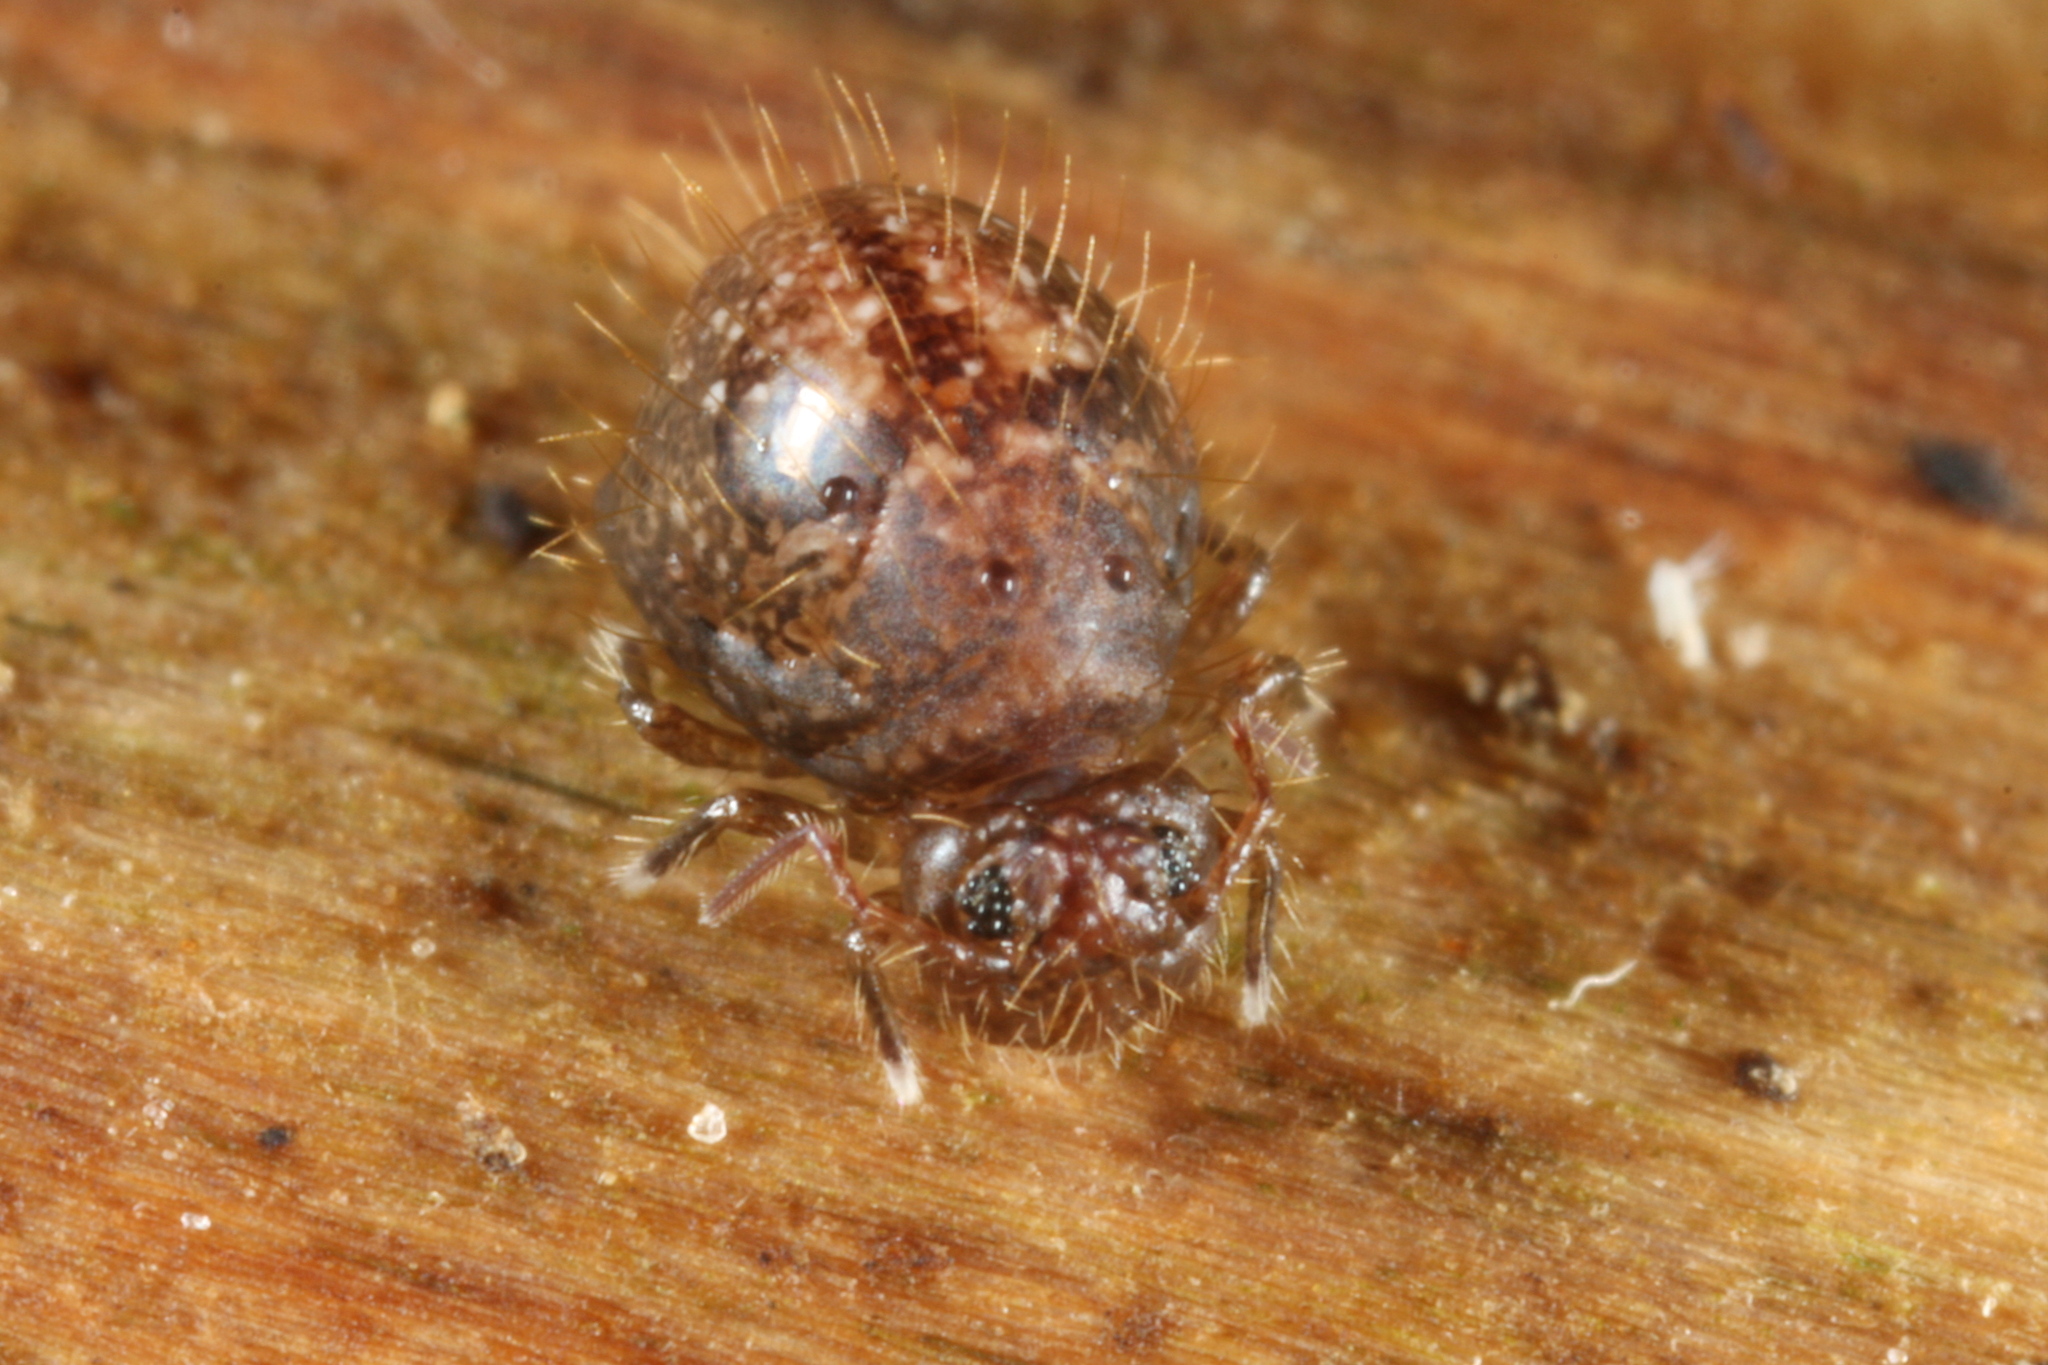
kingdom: Animalia
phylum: Arthropoda
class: Collembola
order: Symphypleona
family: Sminthuridae
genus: Allacma
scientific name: Allacma fusca
